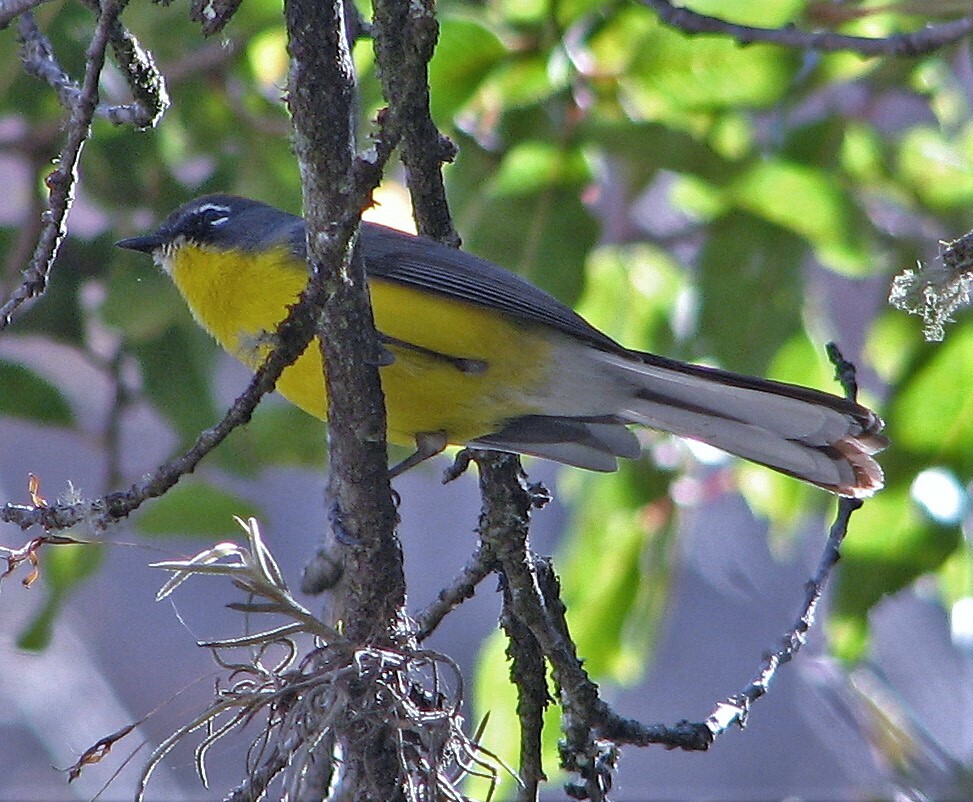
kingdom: Animalia
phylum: Chordata
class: Aves
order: Passeriformes
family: Parulidae
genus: Myioborus
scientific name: Myioborus brunniceps
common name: Brown-capped whitestart
